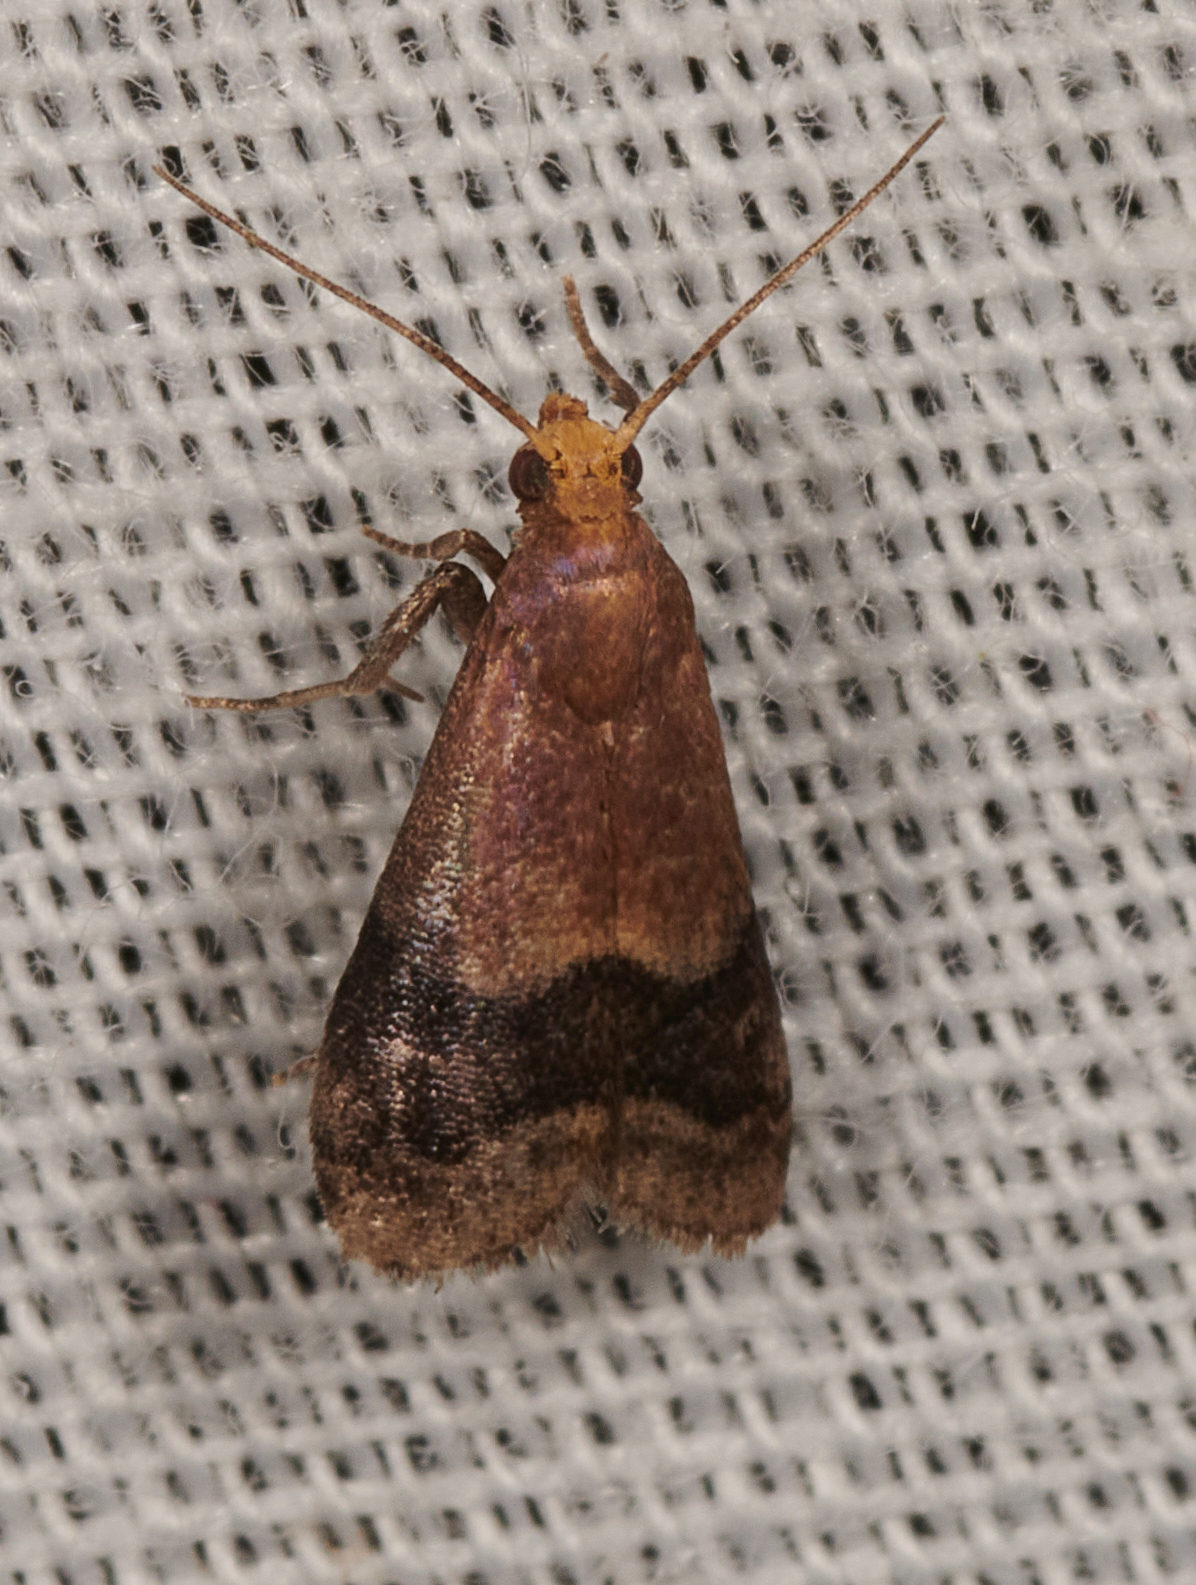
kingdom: Animalia
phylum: Arthropoda
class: Insecta
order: Lepidoptera
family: Pyralidae
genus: Eulogia
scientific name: Eulogia ochrifrontella
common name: Broad-banded eulogia moth
